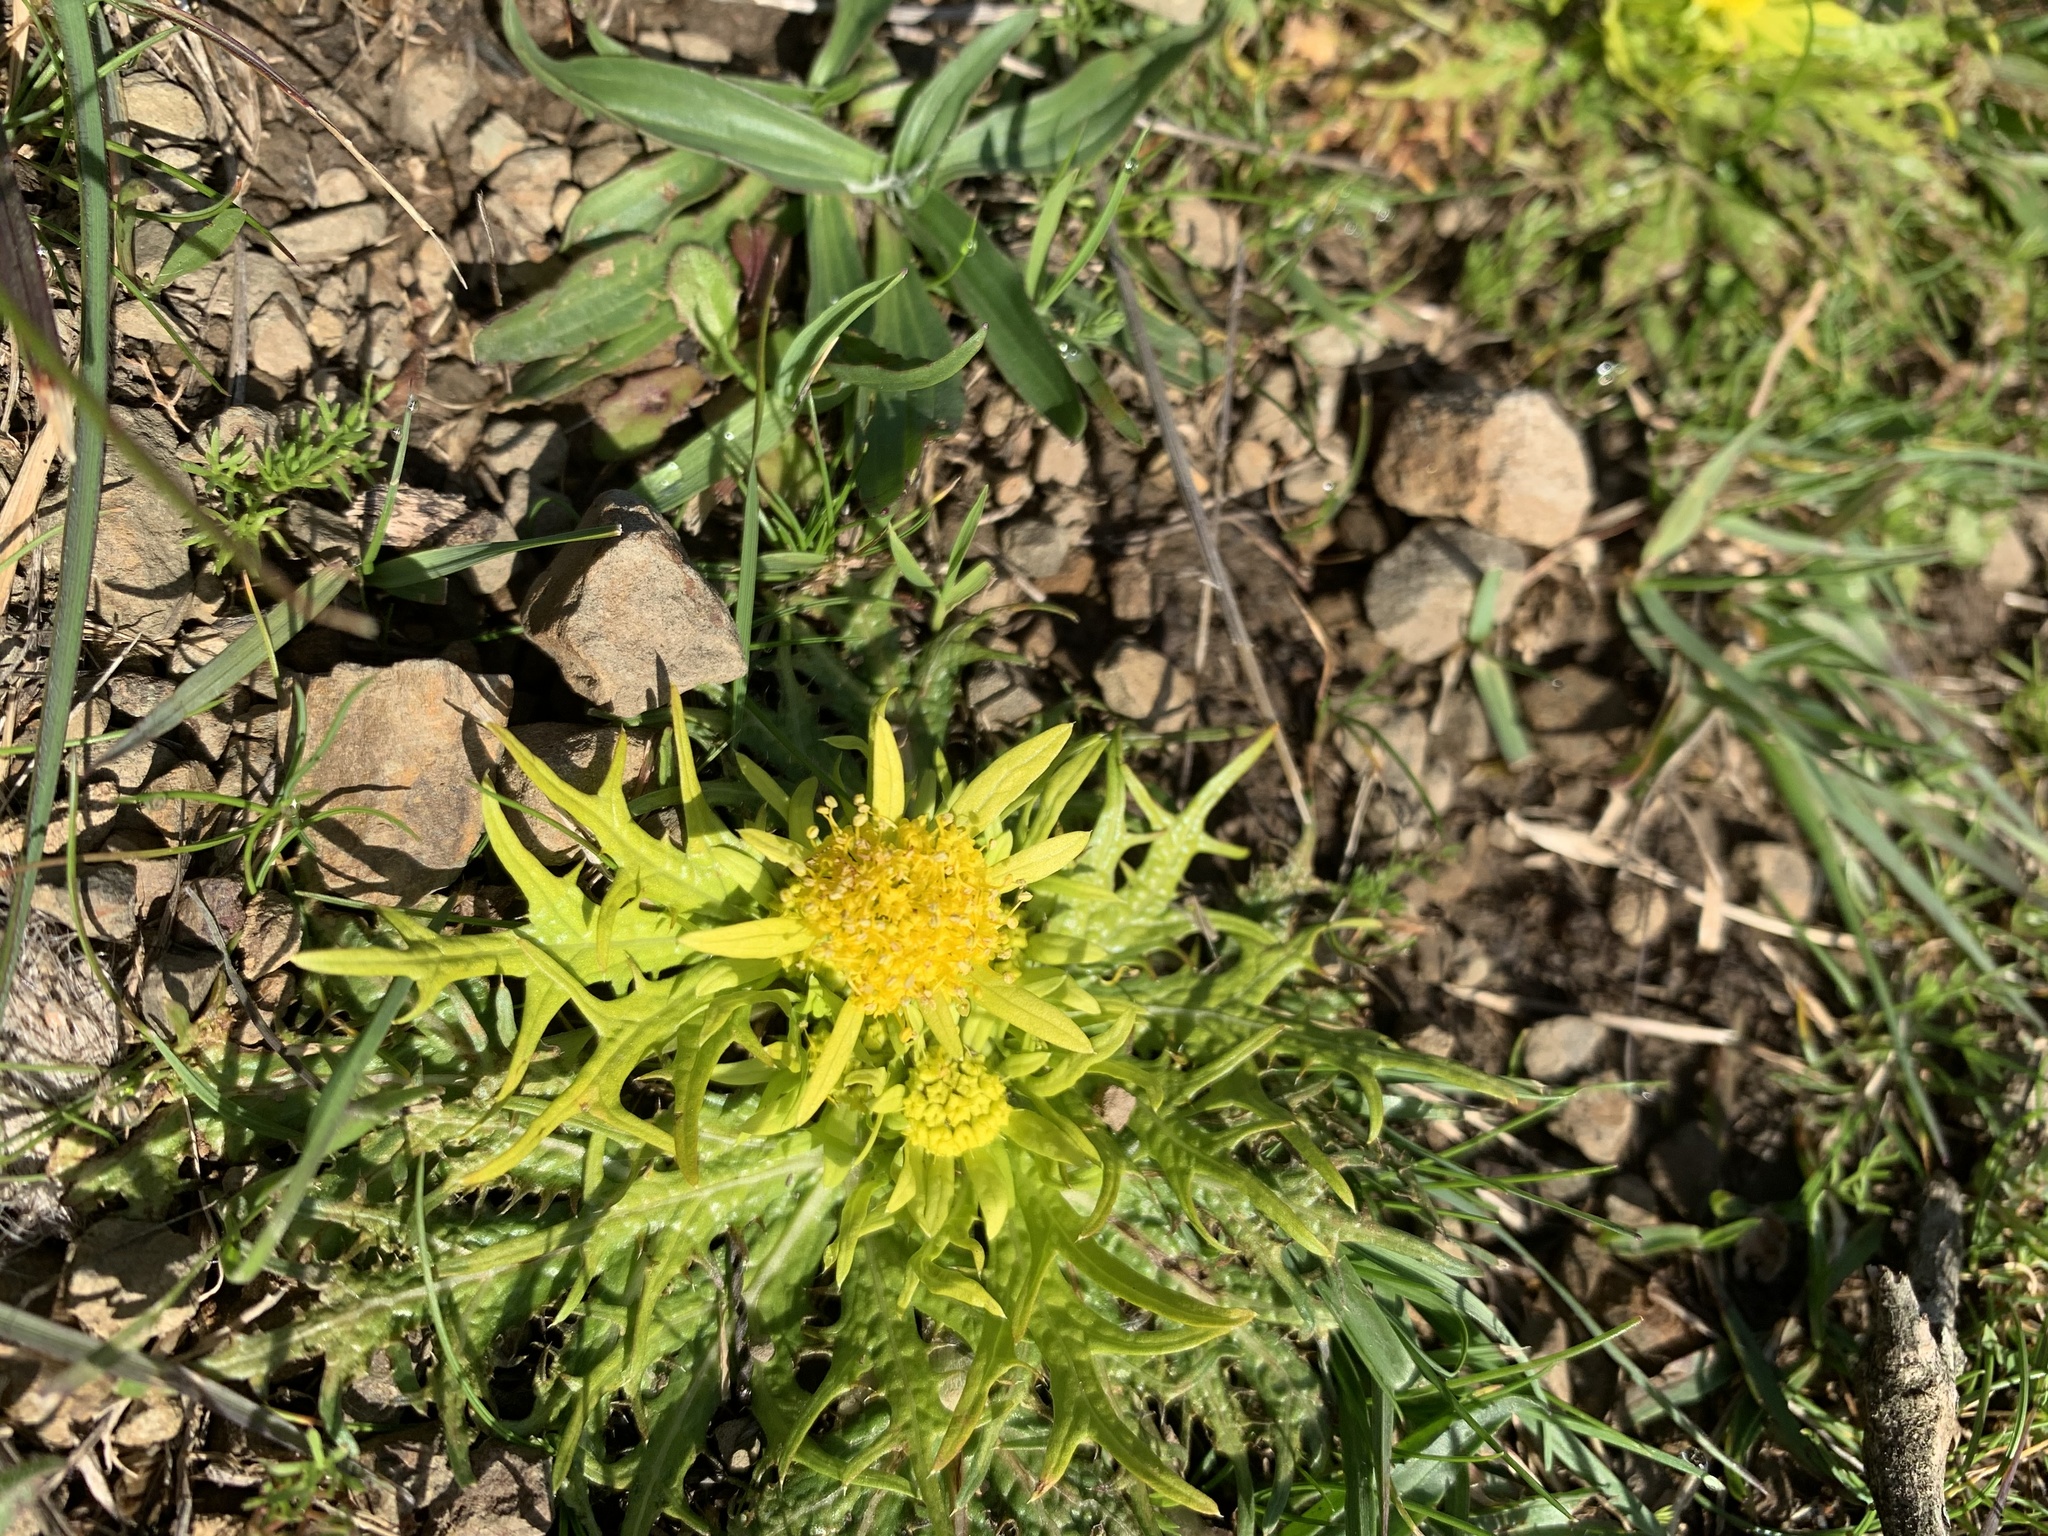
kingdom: Plantae
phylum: Tracheophyta
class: Magnoliopsida
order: Apiales
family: Apiaceae
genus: Sanicula
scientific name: Sanicula arctopoides
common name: Footsteps-of-spring
